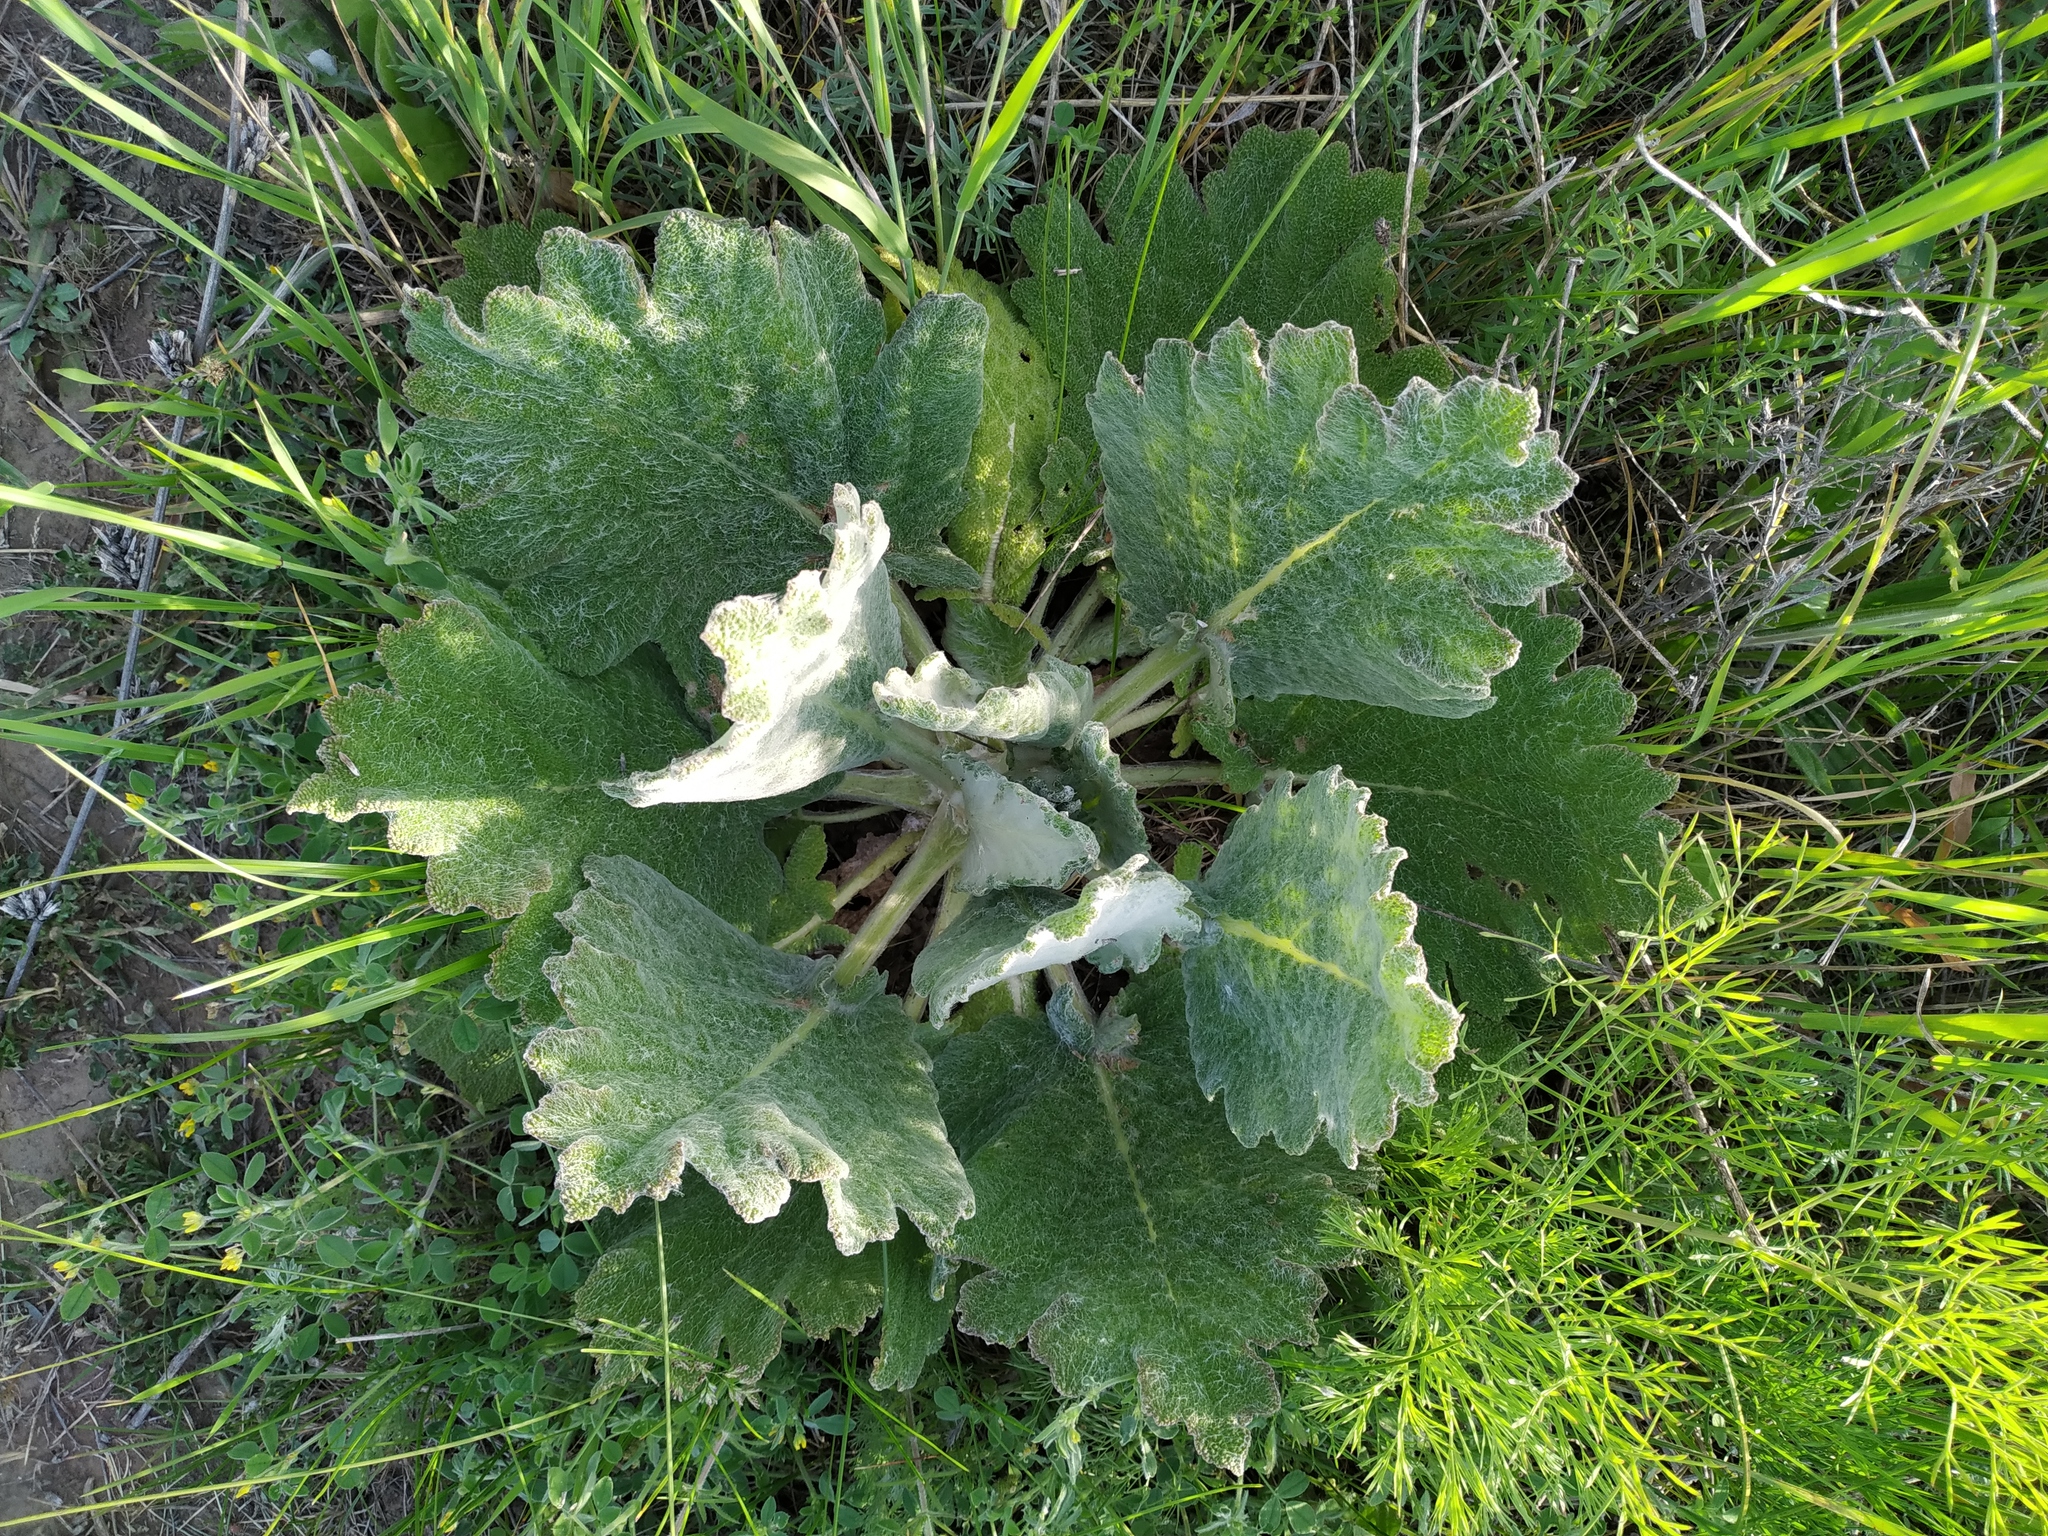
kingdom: Plantae
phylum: Tracheophyta
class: Magnoliopsida
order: Lamiales
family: Lamiaceae
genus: Salvia
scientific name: Salvia aethiopis
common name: Mediterranean sage
